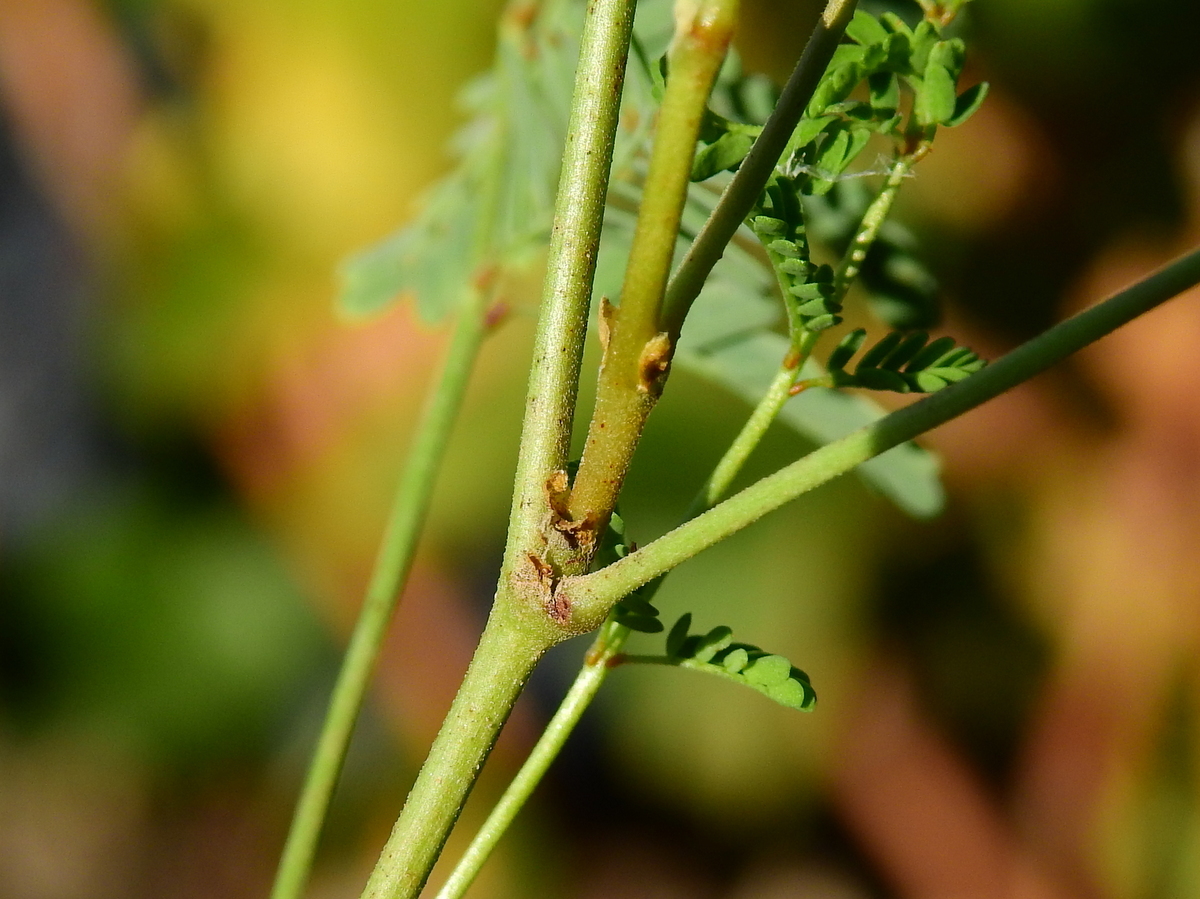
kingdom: Plantae
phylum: Tracheophyta
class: Magnoliopsida
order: Fabales
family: Fabaceae
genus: Hoffmannseggia
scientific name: Hoffmannseggia glauca
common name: Pignut
